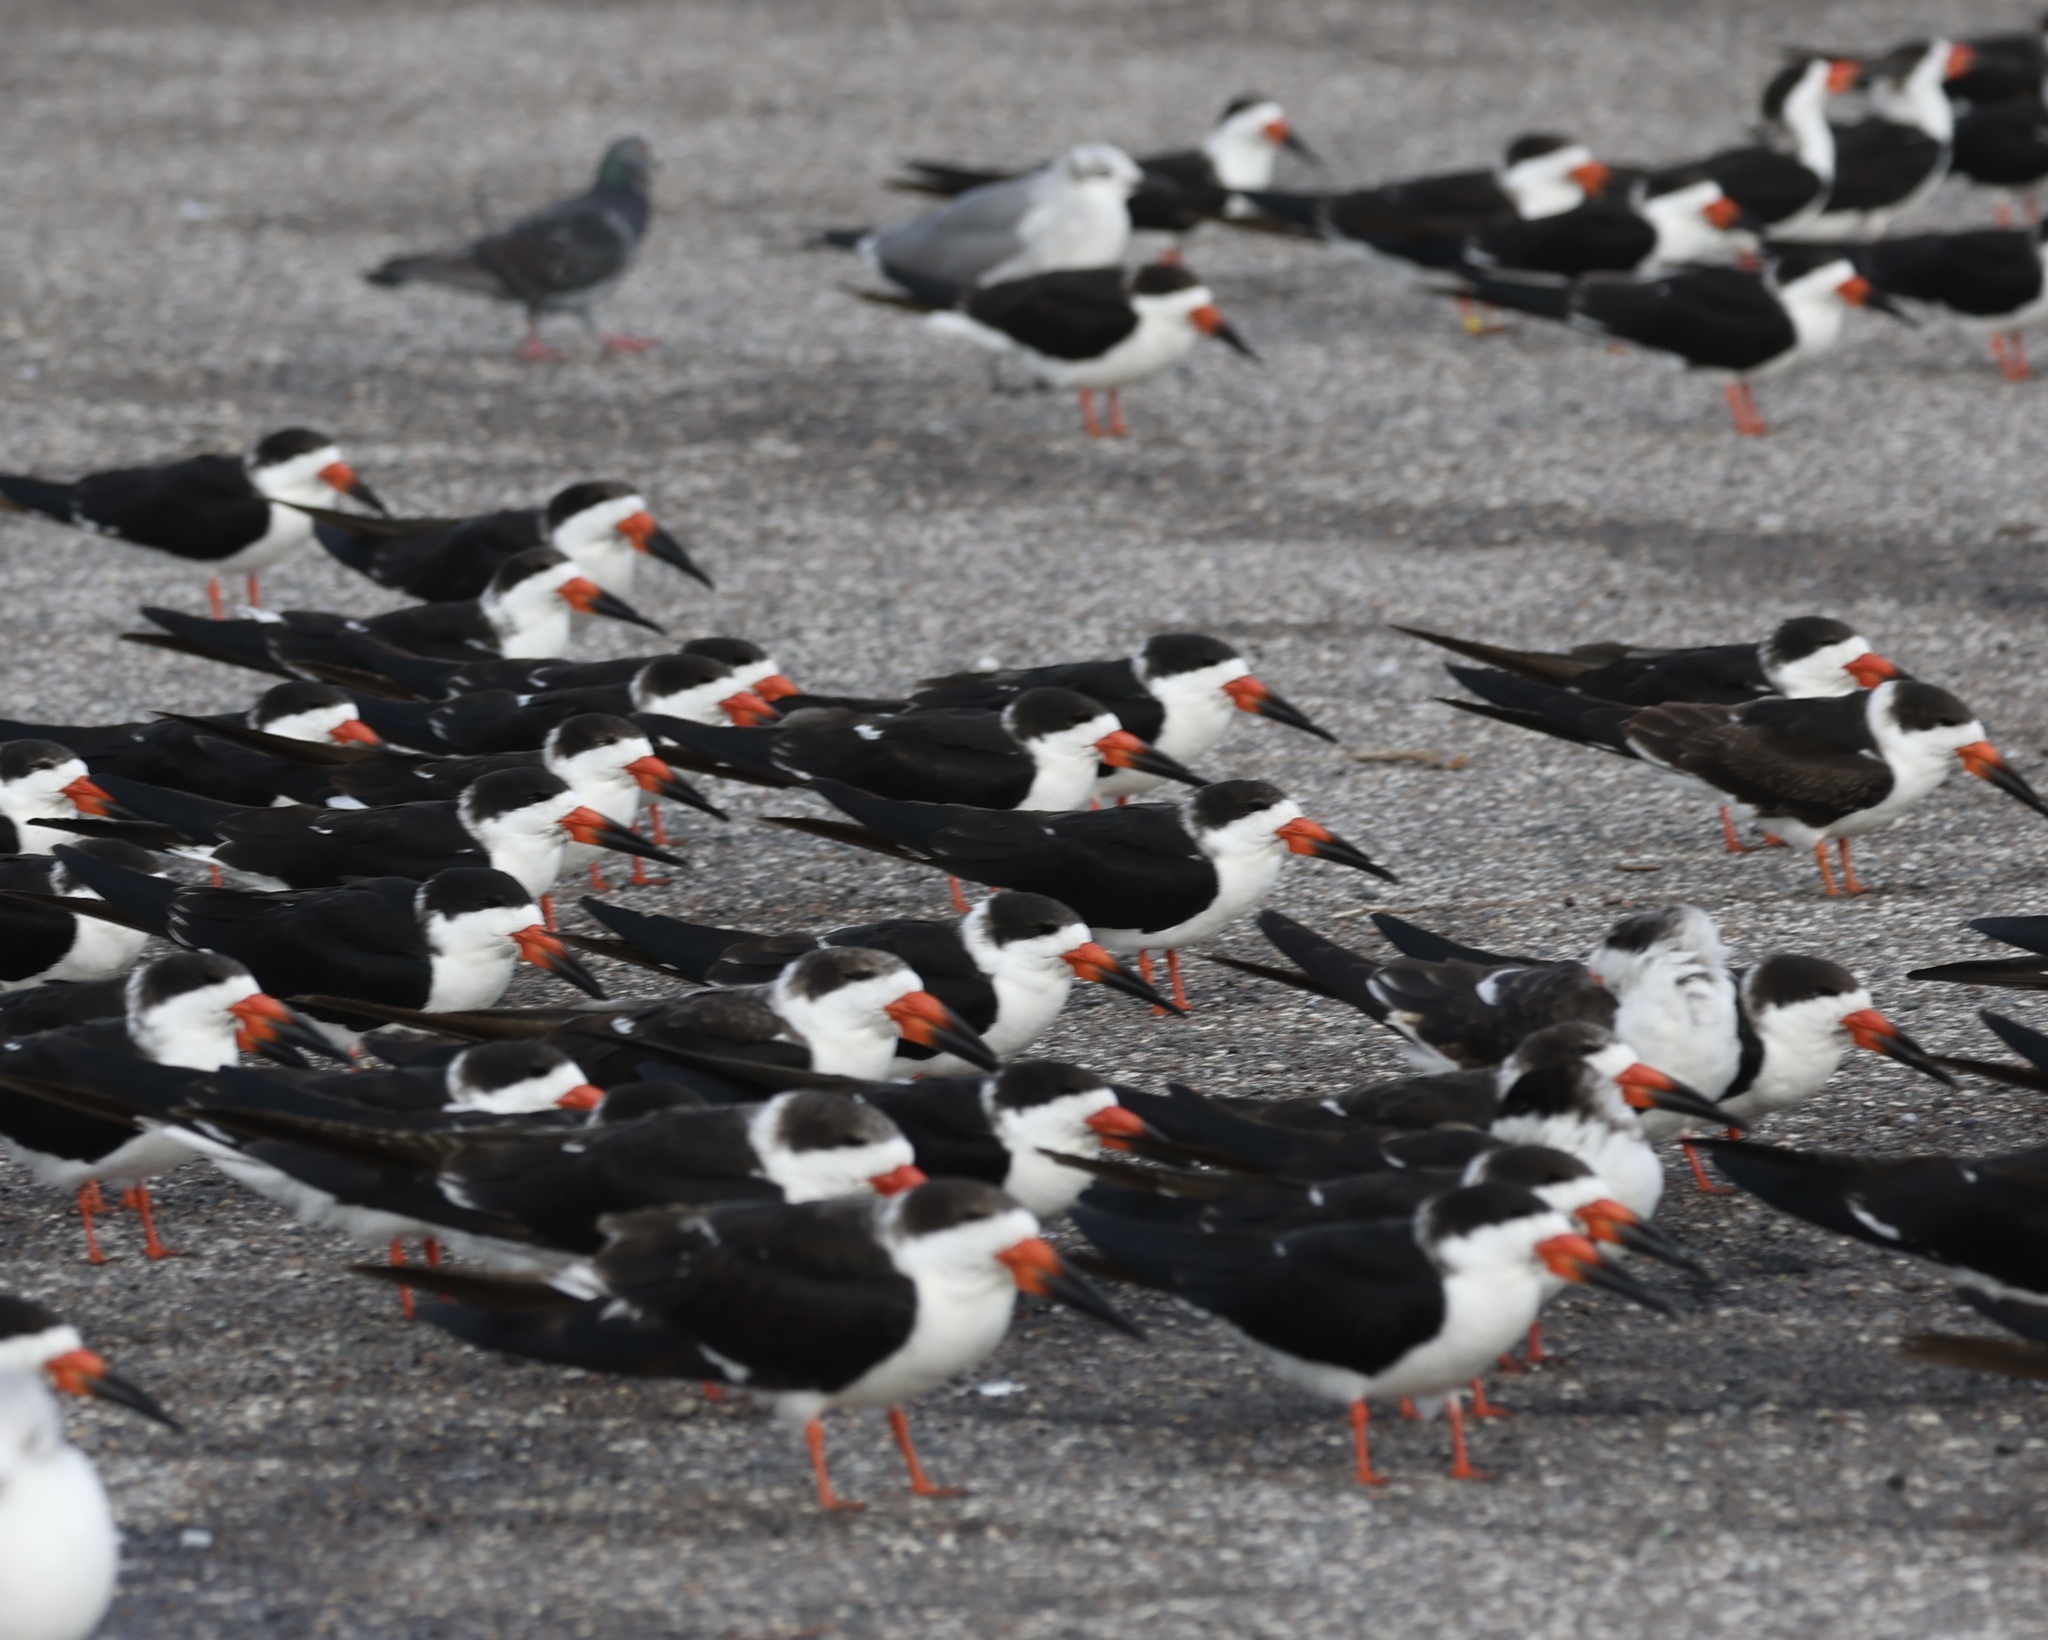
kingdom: Animalia
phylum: Chordata
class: Aves
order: Charadriiformes
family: Laridae
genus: Rynchops
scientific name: Rynchops niger
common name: Black skimmer
